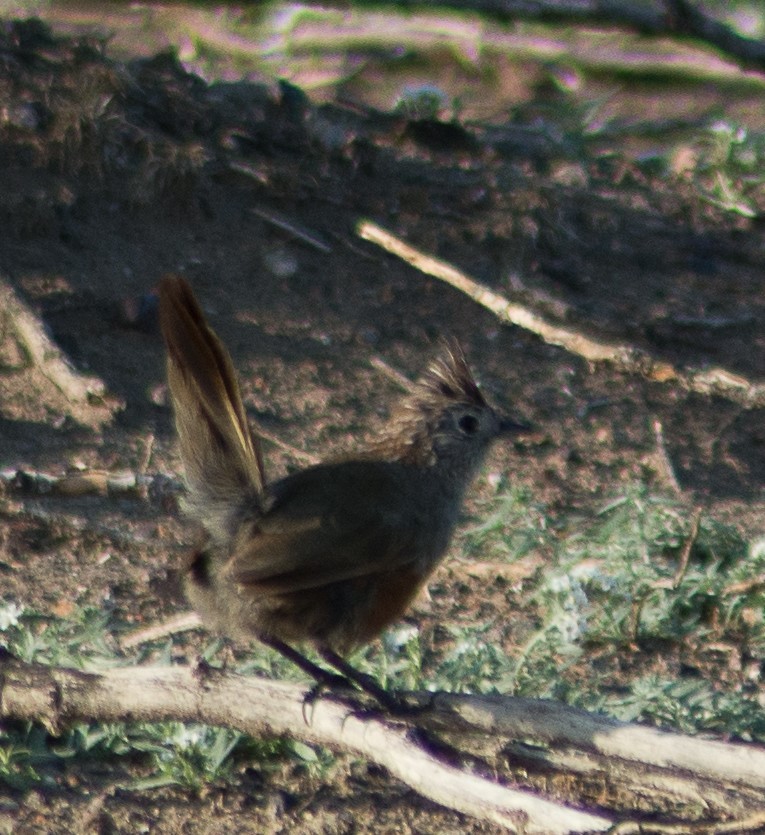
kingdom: Animalia
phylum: Chordata
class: Aves
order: Passeriformes
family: Rhinocryptidae
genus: Rhinocrypta
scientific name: Rhinocrypta lanceolata
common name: Crested gallito
